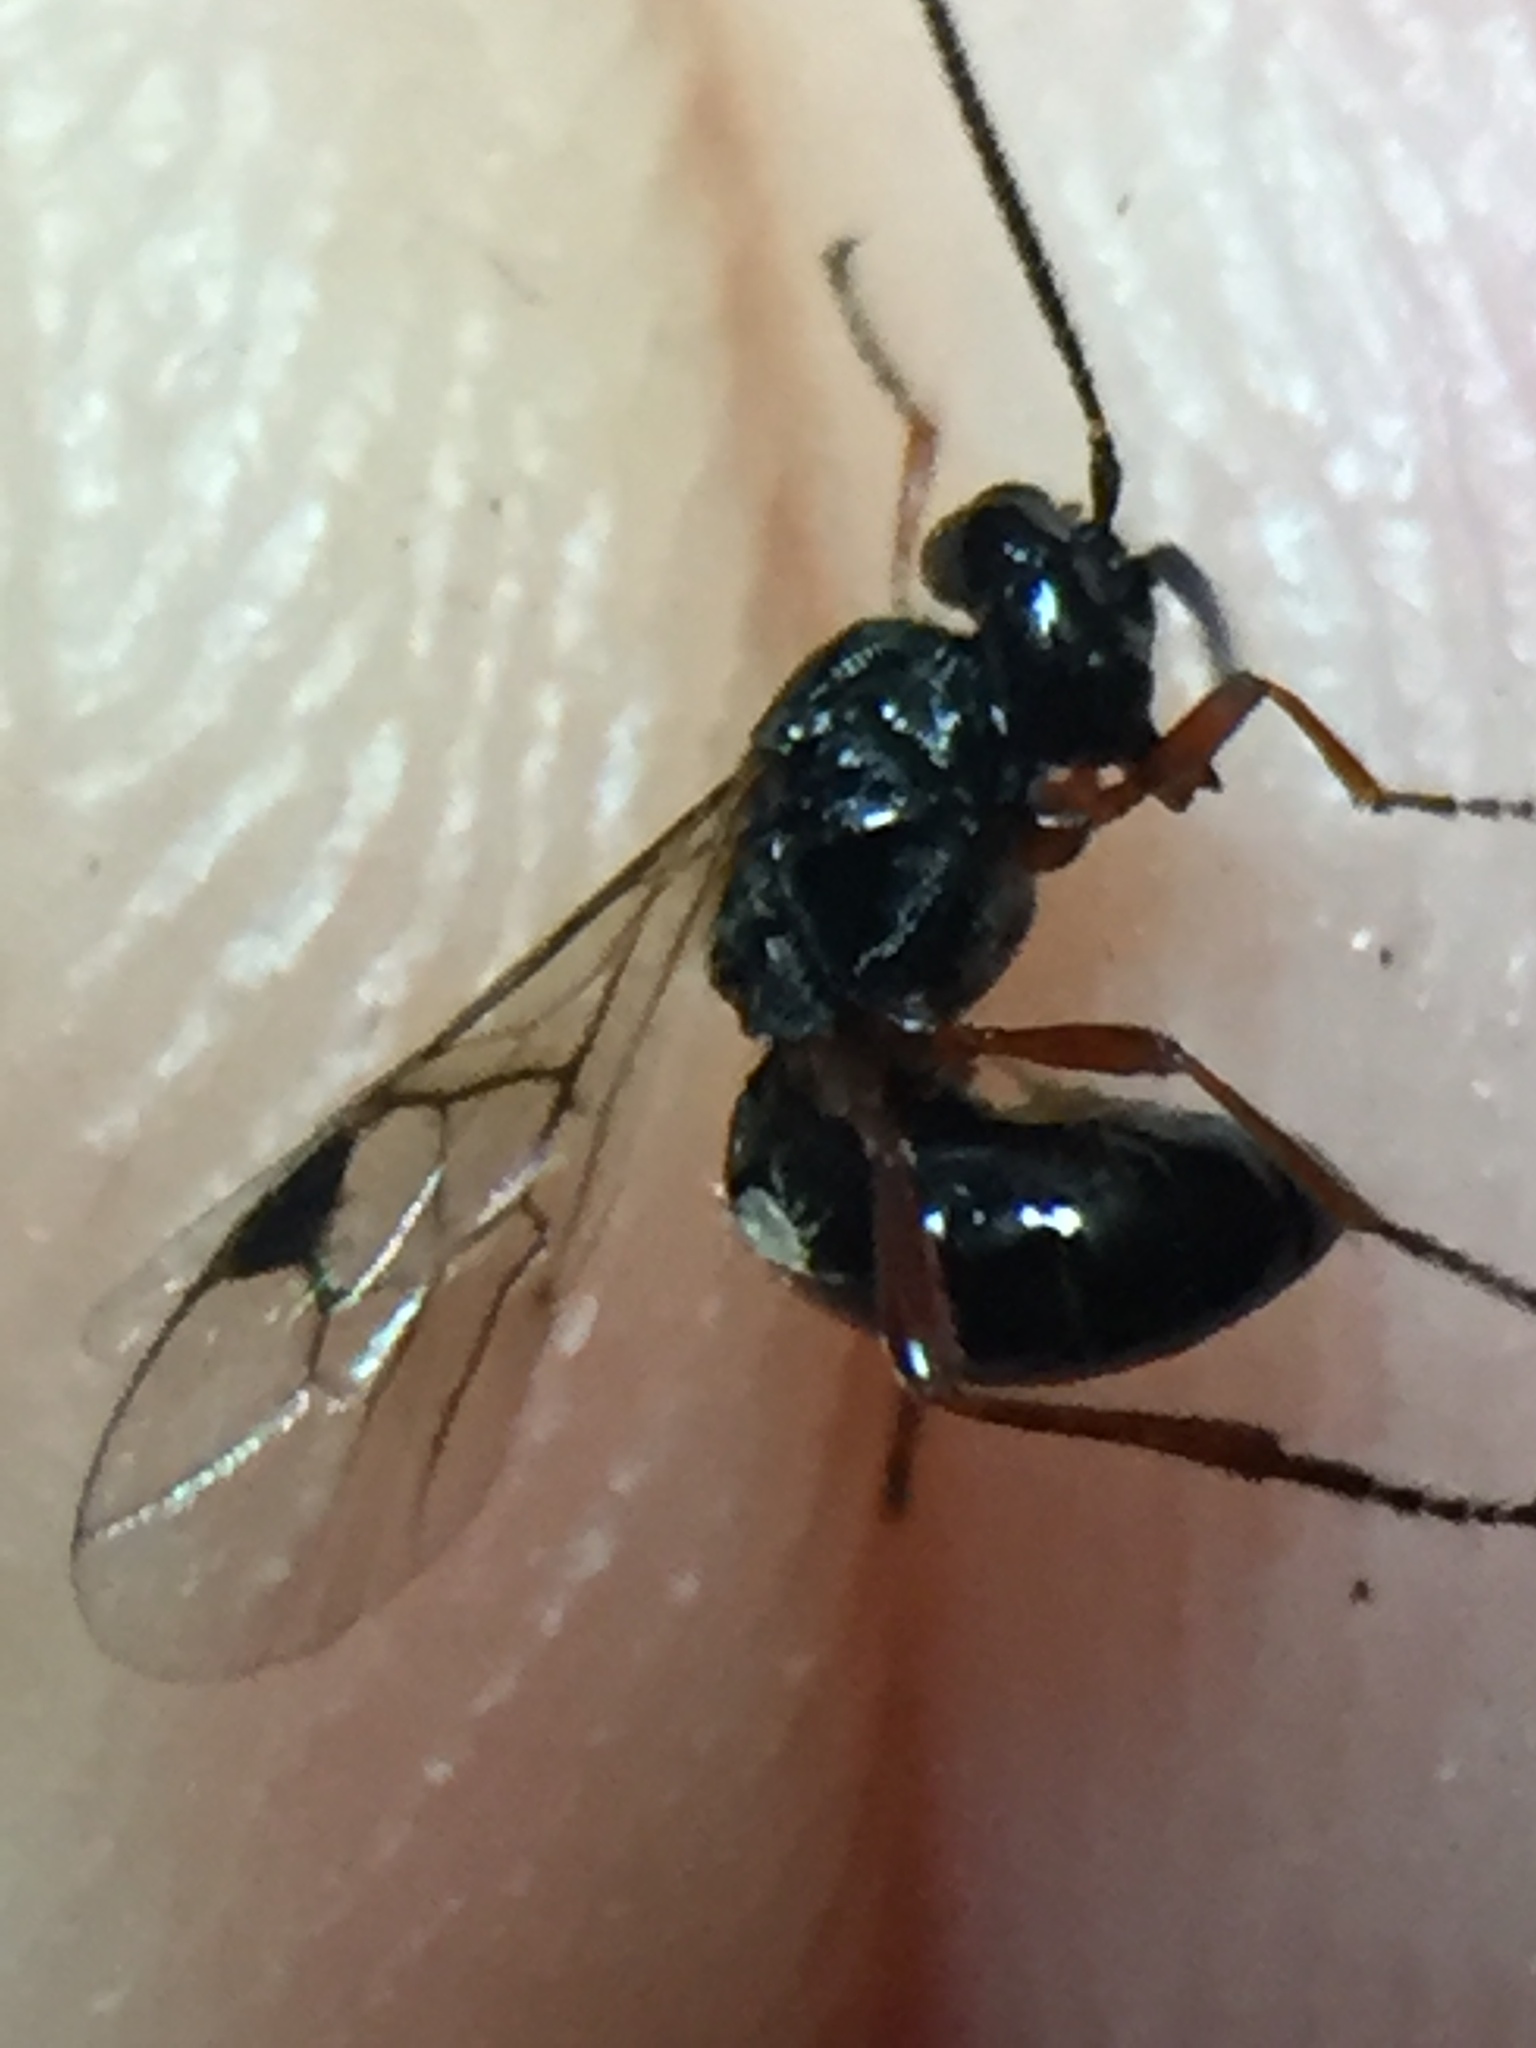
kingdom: Animalia
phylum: Arthropoda
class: Insecta
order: Hymenoptera
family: Braconidae
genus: Alysia
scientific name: Alysia manducator
